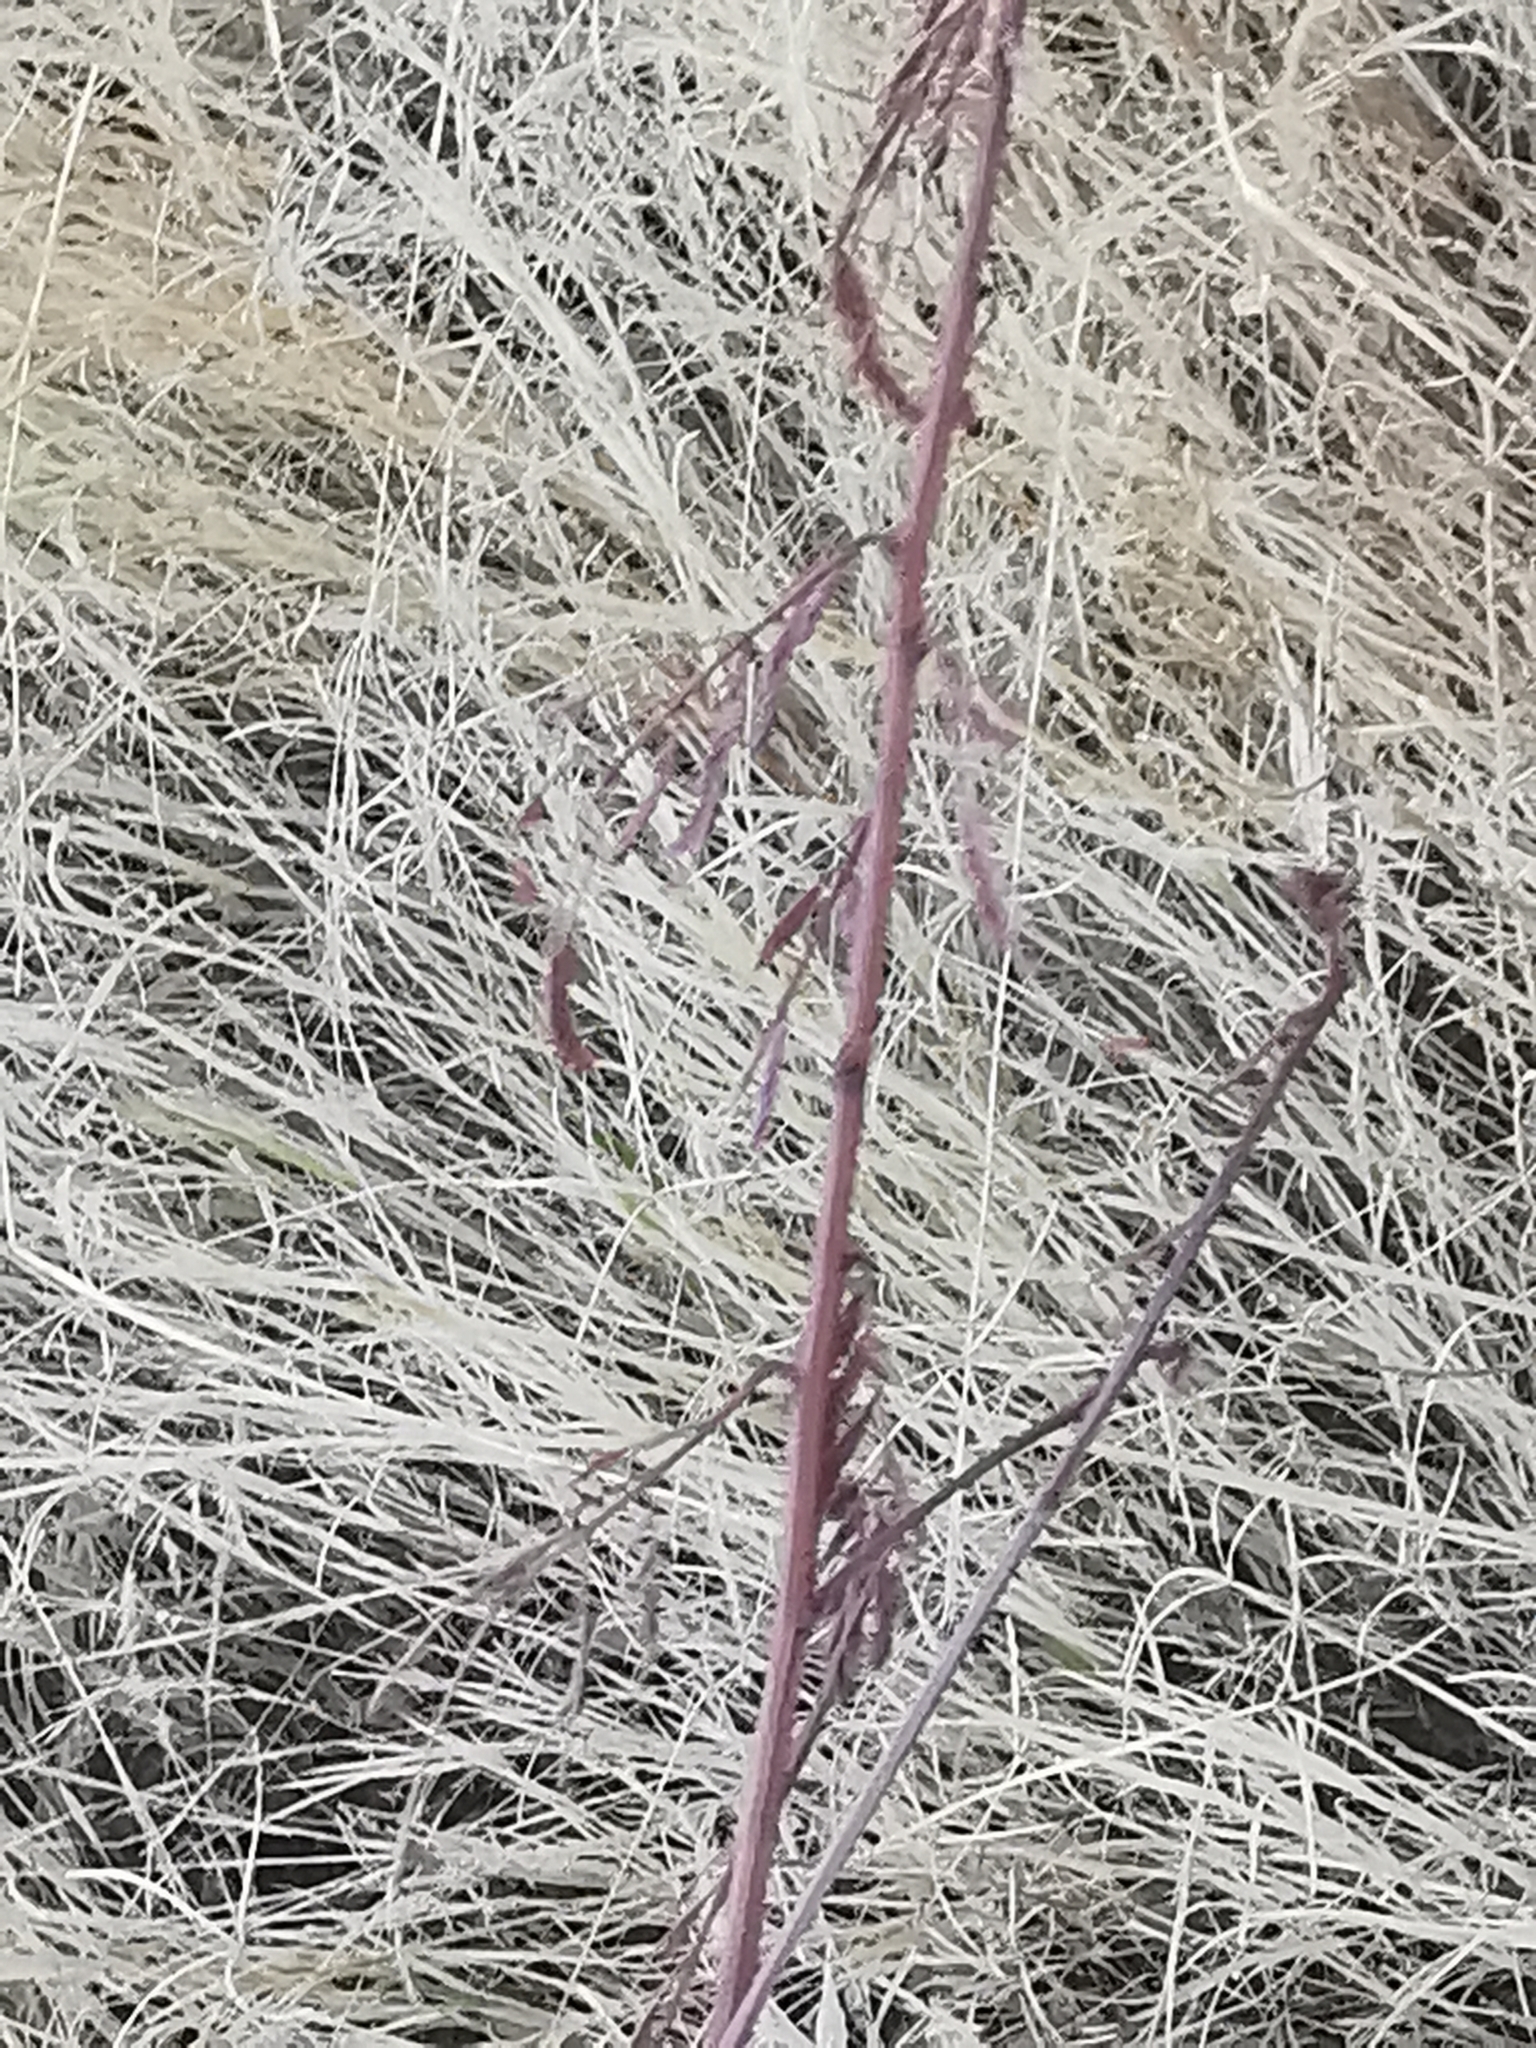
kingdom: Plantae
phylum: Tracheophyta
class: Magnoliopsida
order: Gentianales
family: Apocynaceae
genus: Mandevilla
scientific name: Mandevilla foliosa
